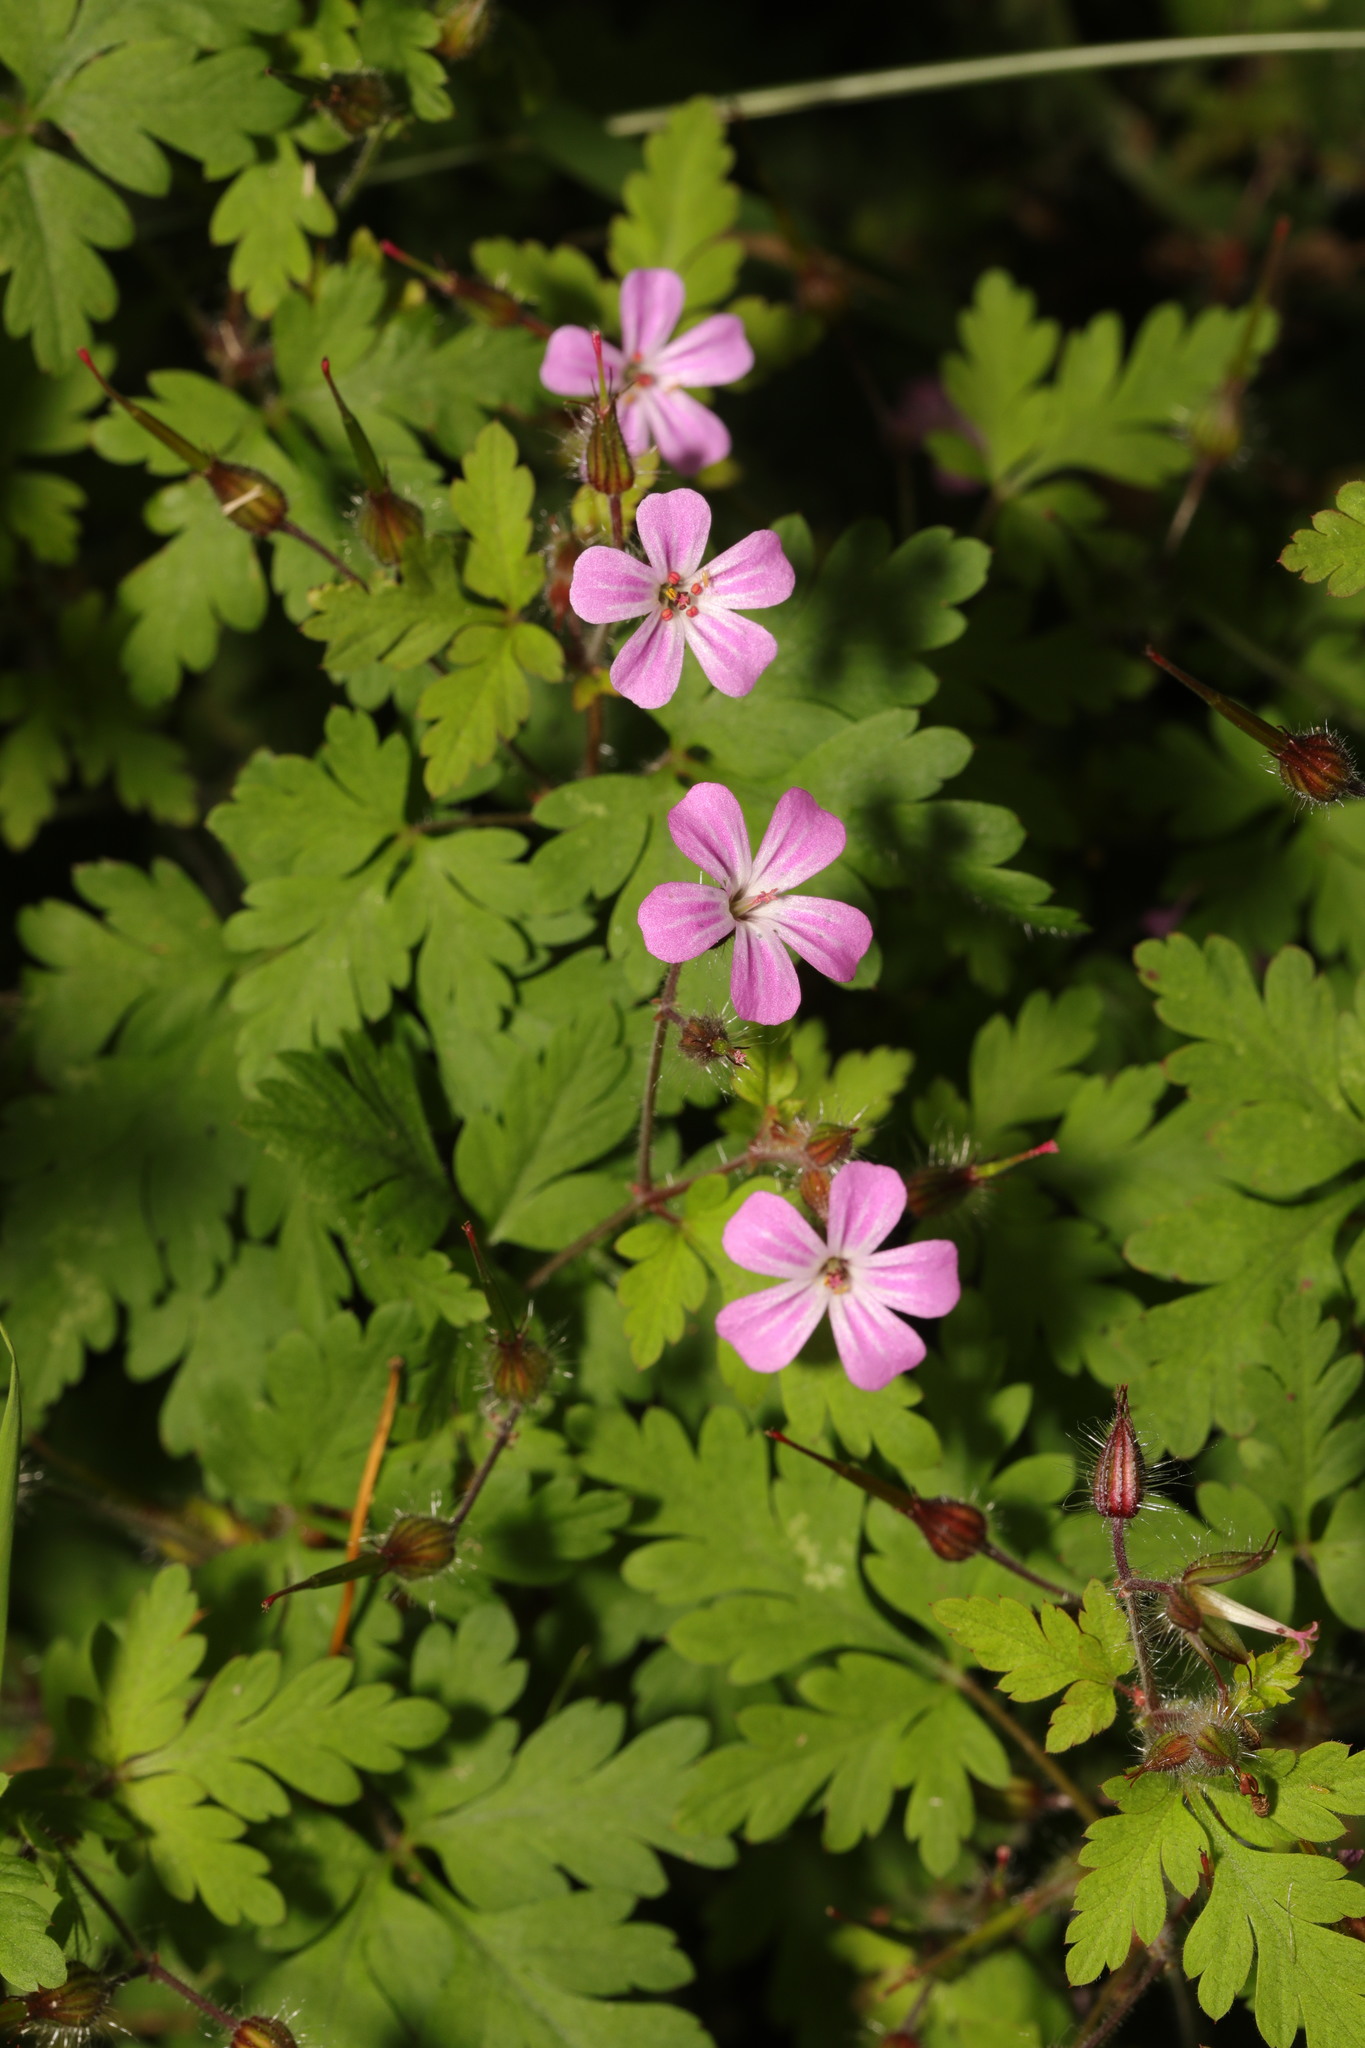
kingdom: Plantae
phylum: Tracheophyta
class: Magnoliopsida
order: Geraniales
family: Geraniaceae
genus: Geranium
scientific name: Geranium robertianum
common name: Herb-robert
